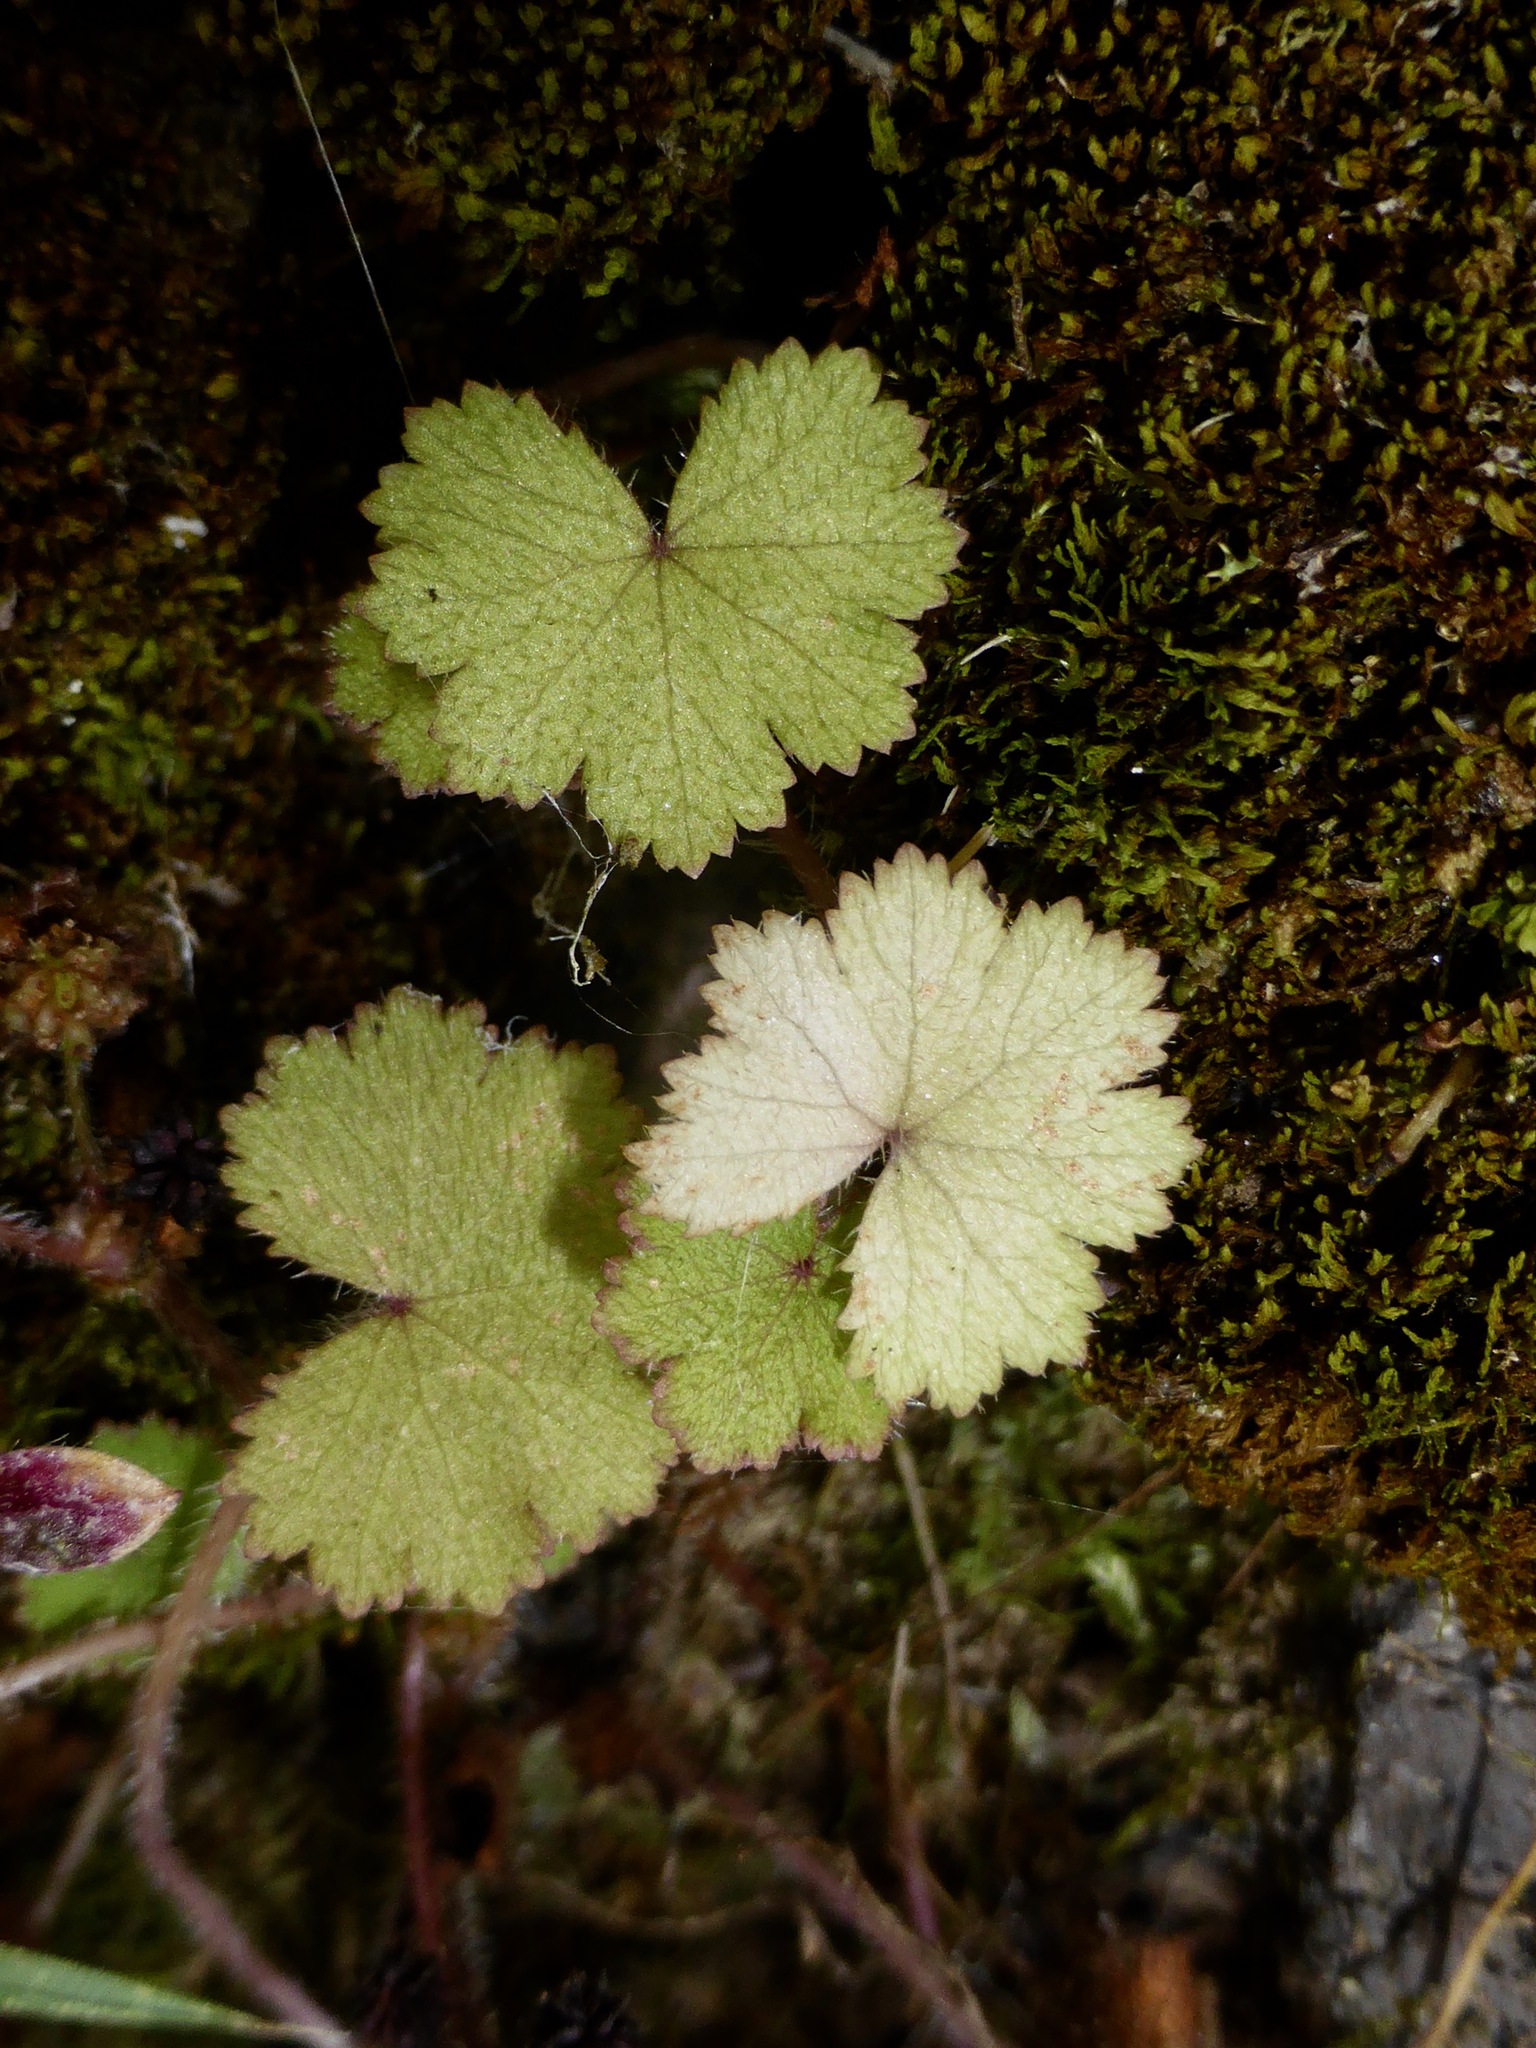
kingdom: Plantae
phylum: Tracheophyta
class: Magnoliopsida
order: Apiales
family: Araliaceae
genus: Hydrocotyle
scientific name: Hydrocotyle moschata
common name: Hairy pennywort
